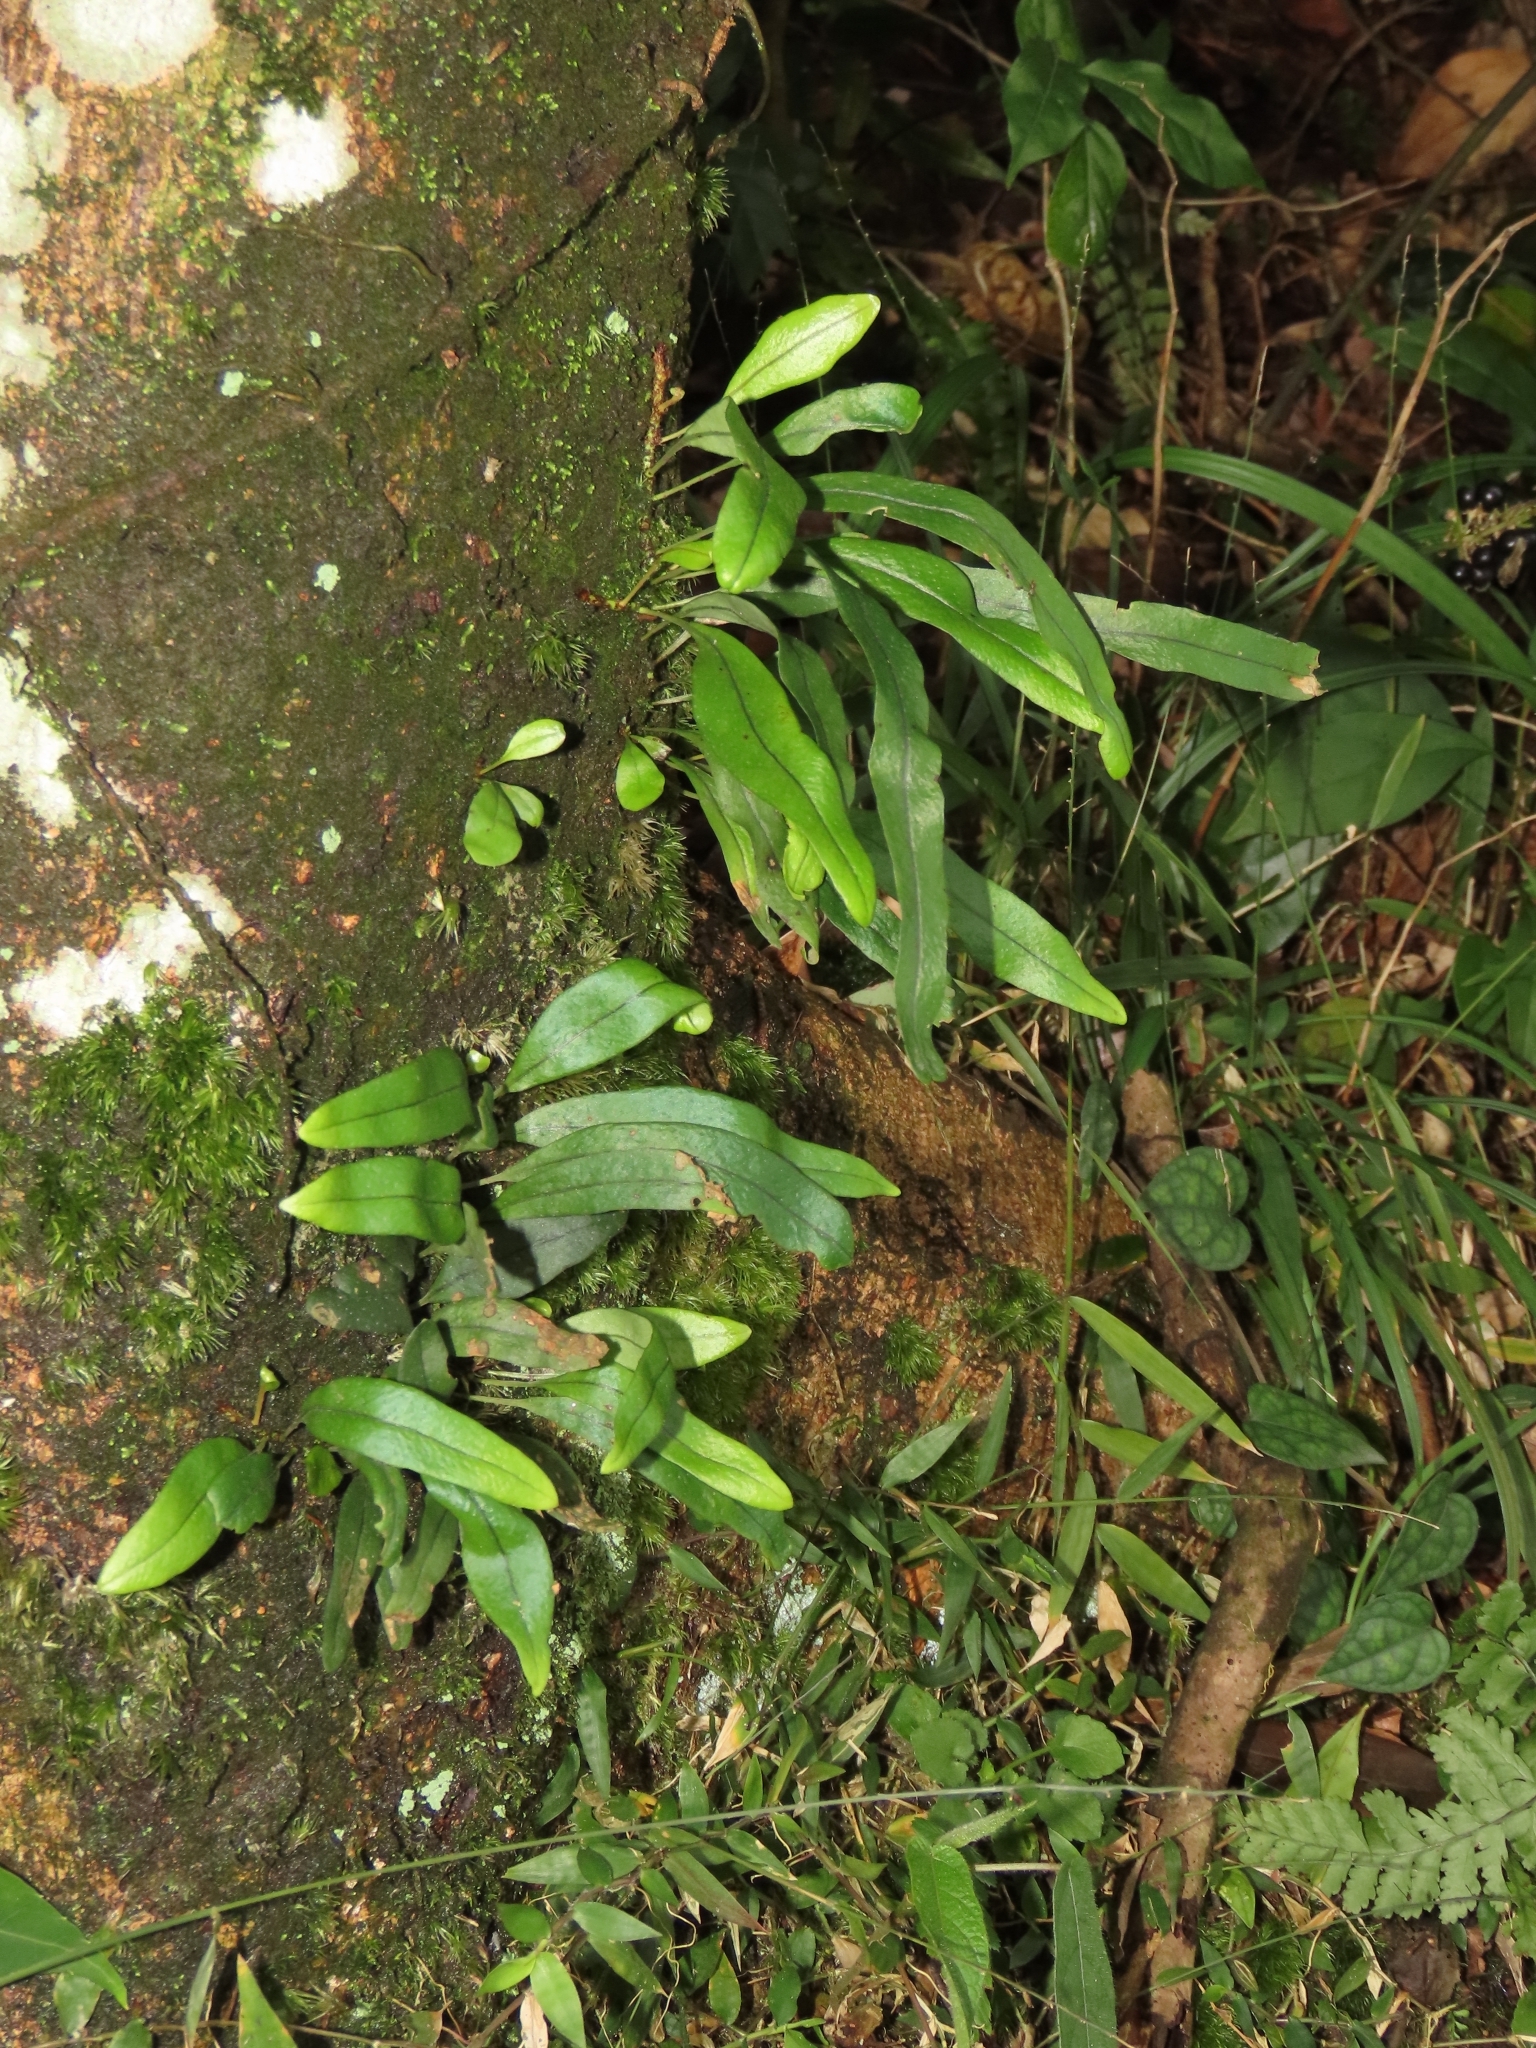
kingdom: Plantae
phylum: Tracheophyta
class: Polypodiopsida
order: Polypodiales
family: Polypodiaceae
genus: Lepisorus
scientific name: Lepisorus thunbergianus
